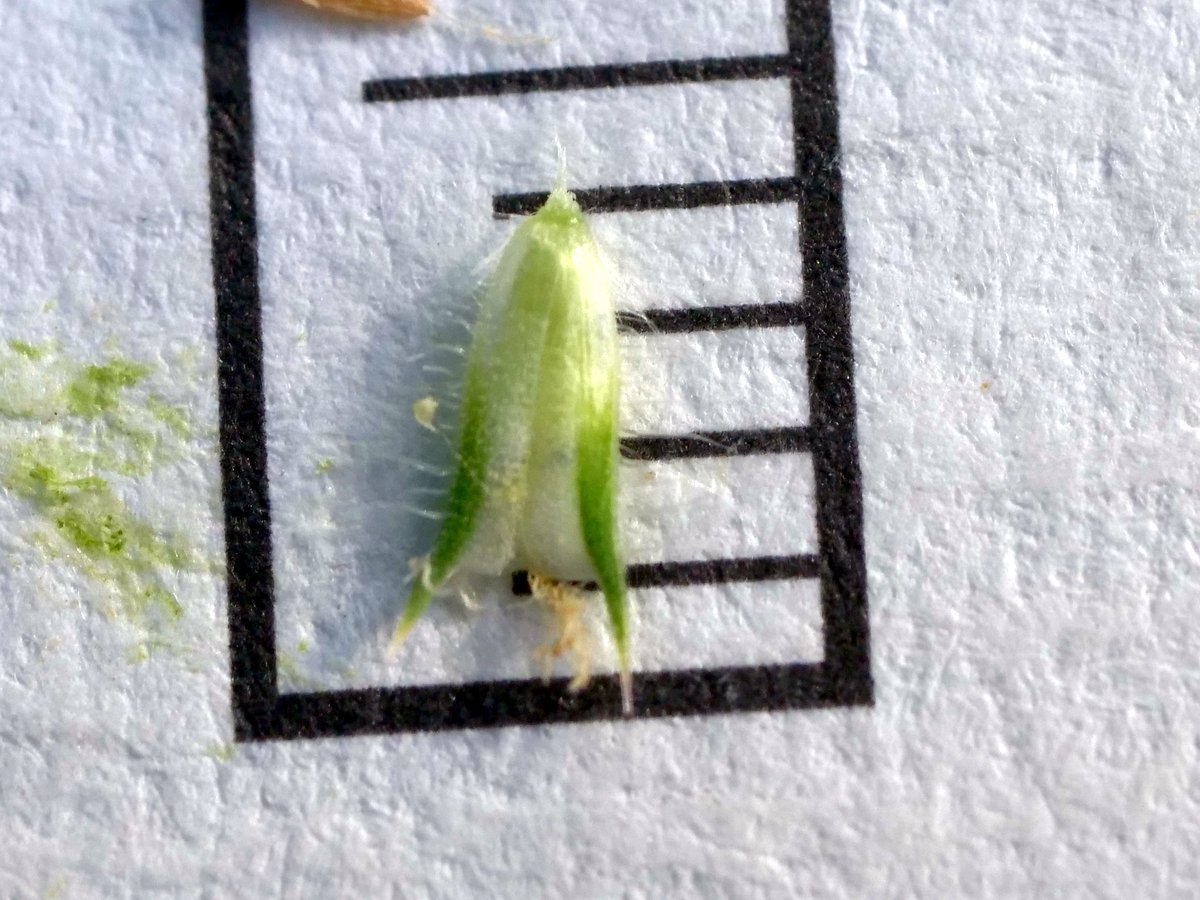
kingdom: Plantae
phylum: Tracheophyta
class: Liliopsida
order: Poales
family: Poaceae
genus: Phleum
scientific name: Phleum pratense
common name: Timothy grass
